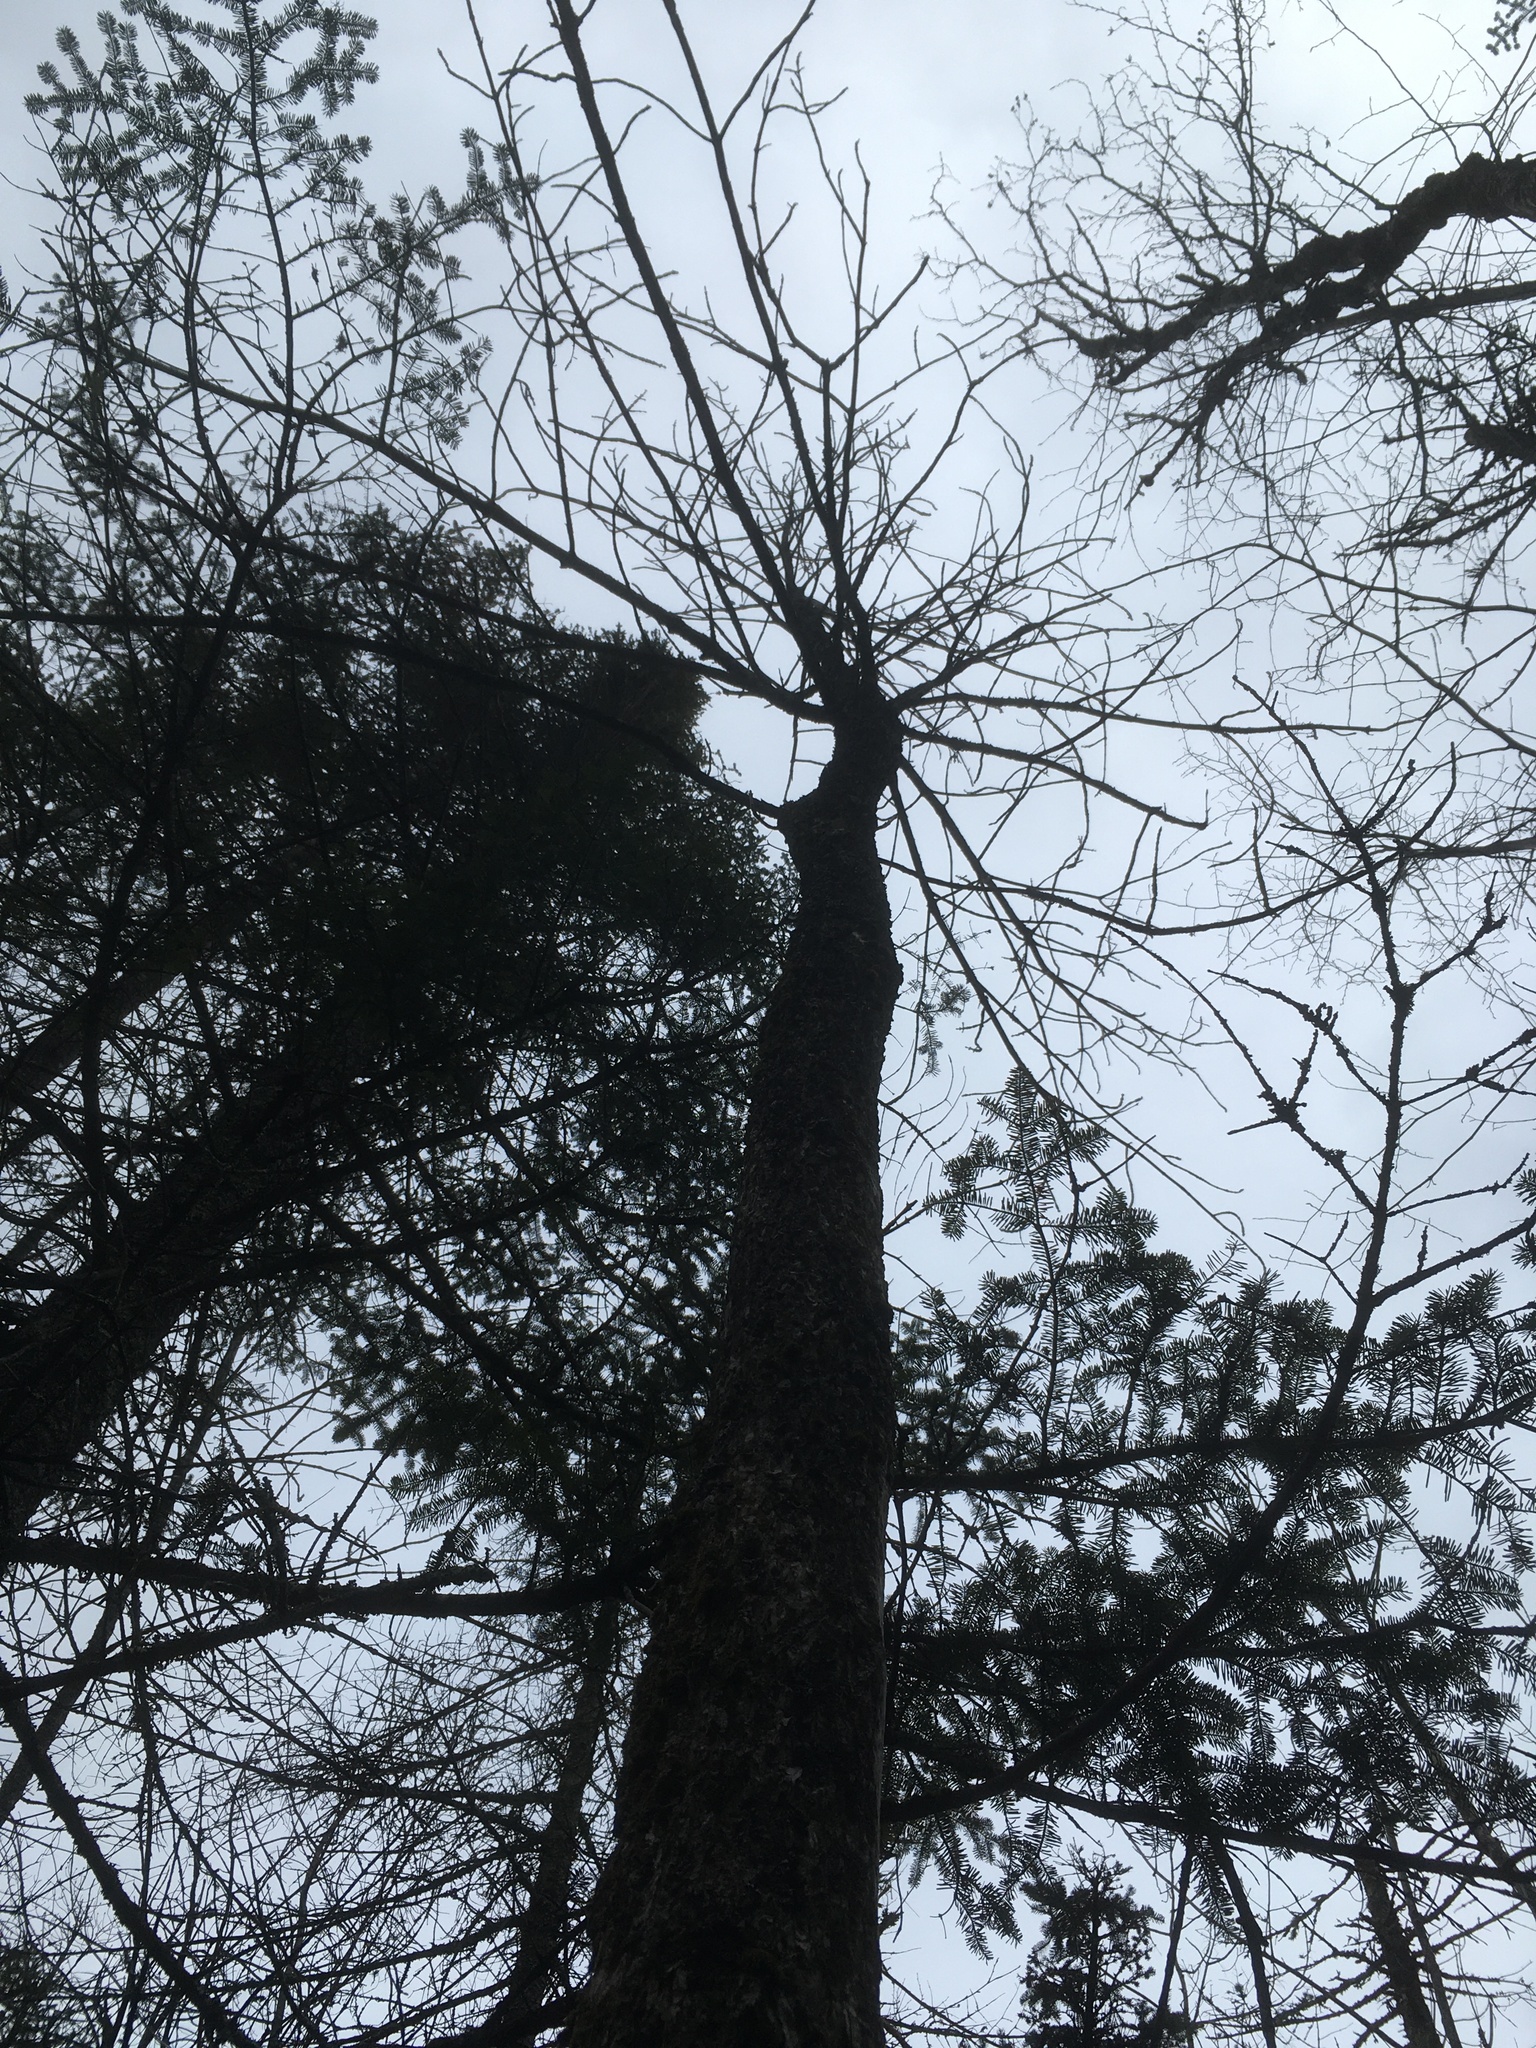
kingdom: Plantae
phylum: Tracheophyta
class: Magnoliopsida
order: Lamiales
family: Oleaceae
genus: Fraxinus
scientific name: Fraxinus nigra
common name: Black ash
